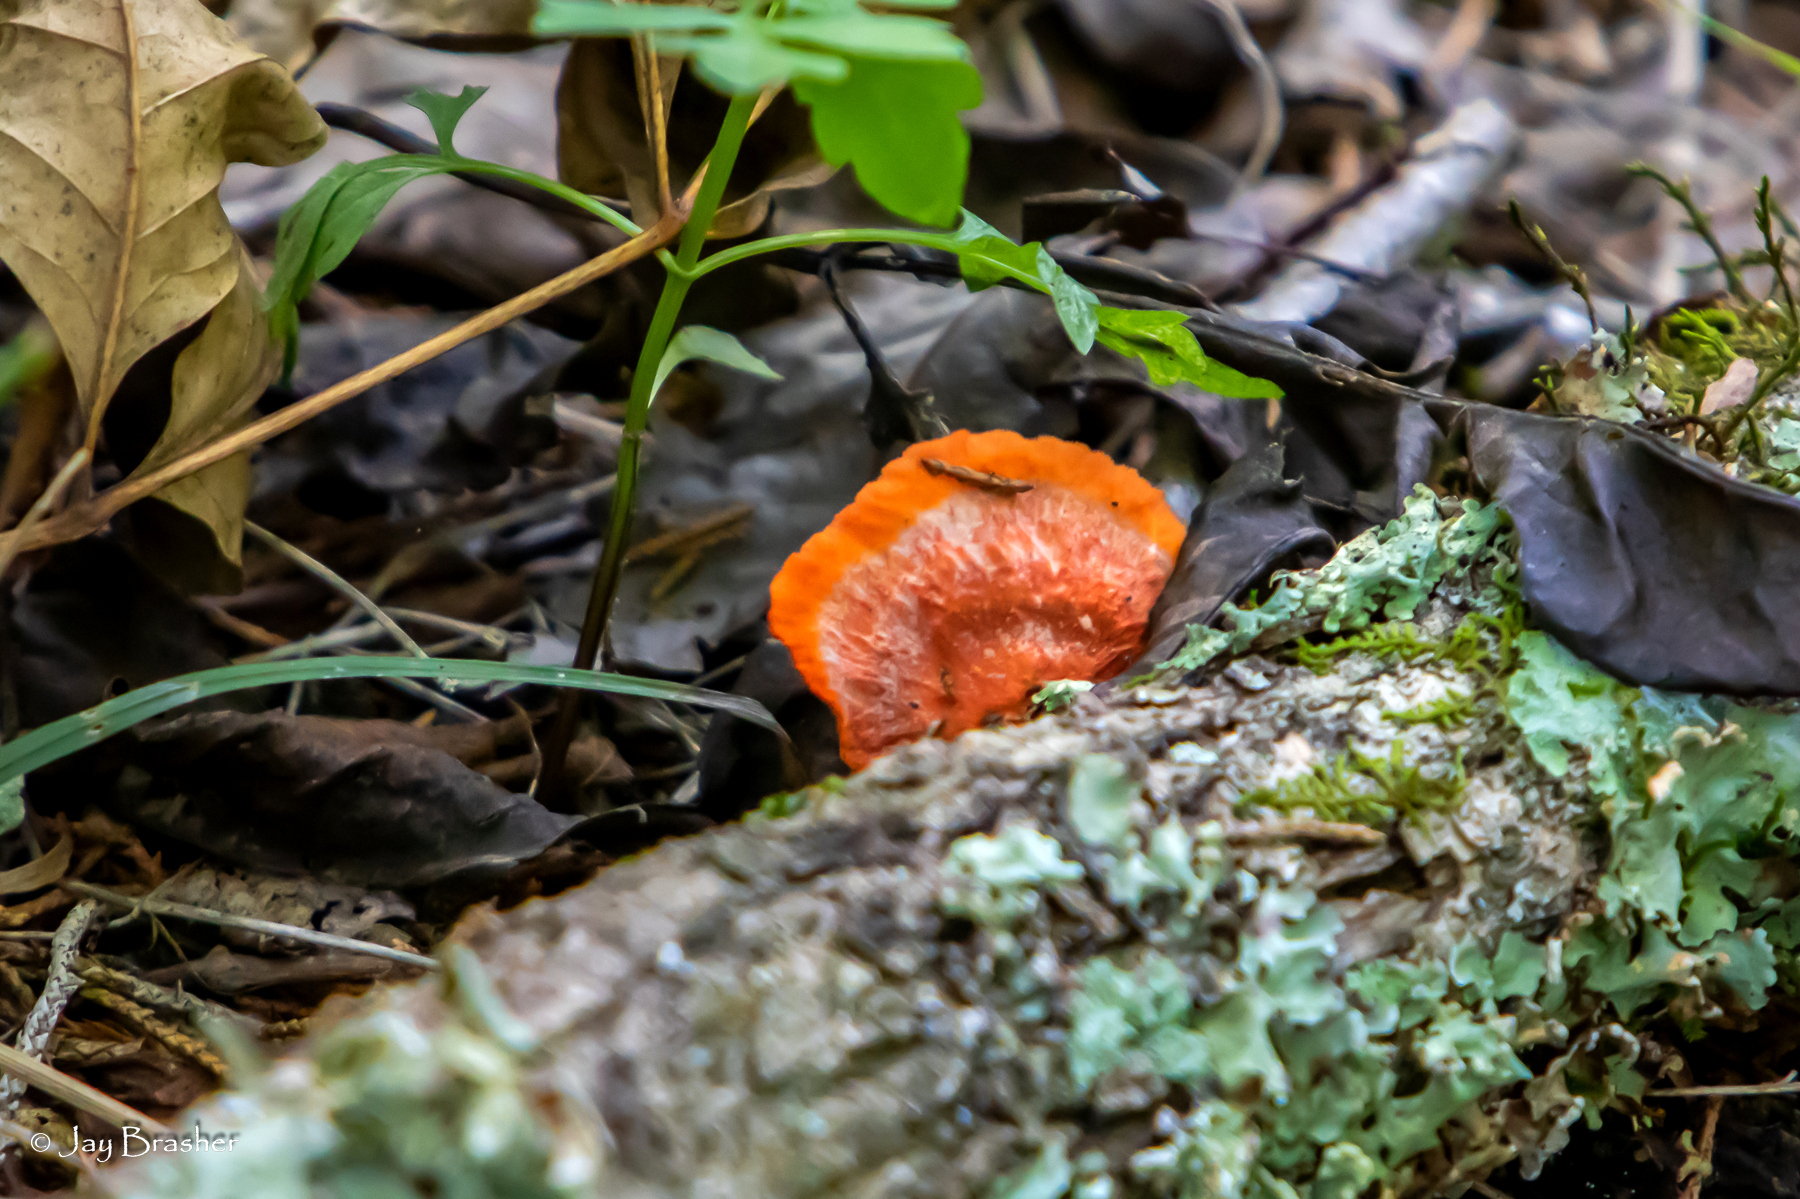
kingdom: Fungi
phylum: Basidiomycota
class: Agaricomycetes
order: Polyporales
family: Polyporaceae
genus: Trametes
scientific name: Trametes cinnabarina
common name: Northern cinnabar polypore
